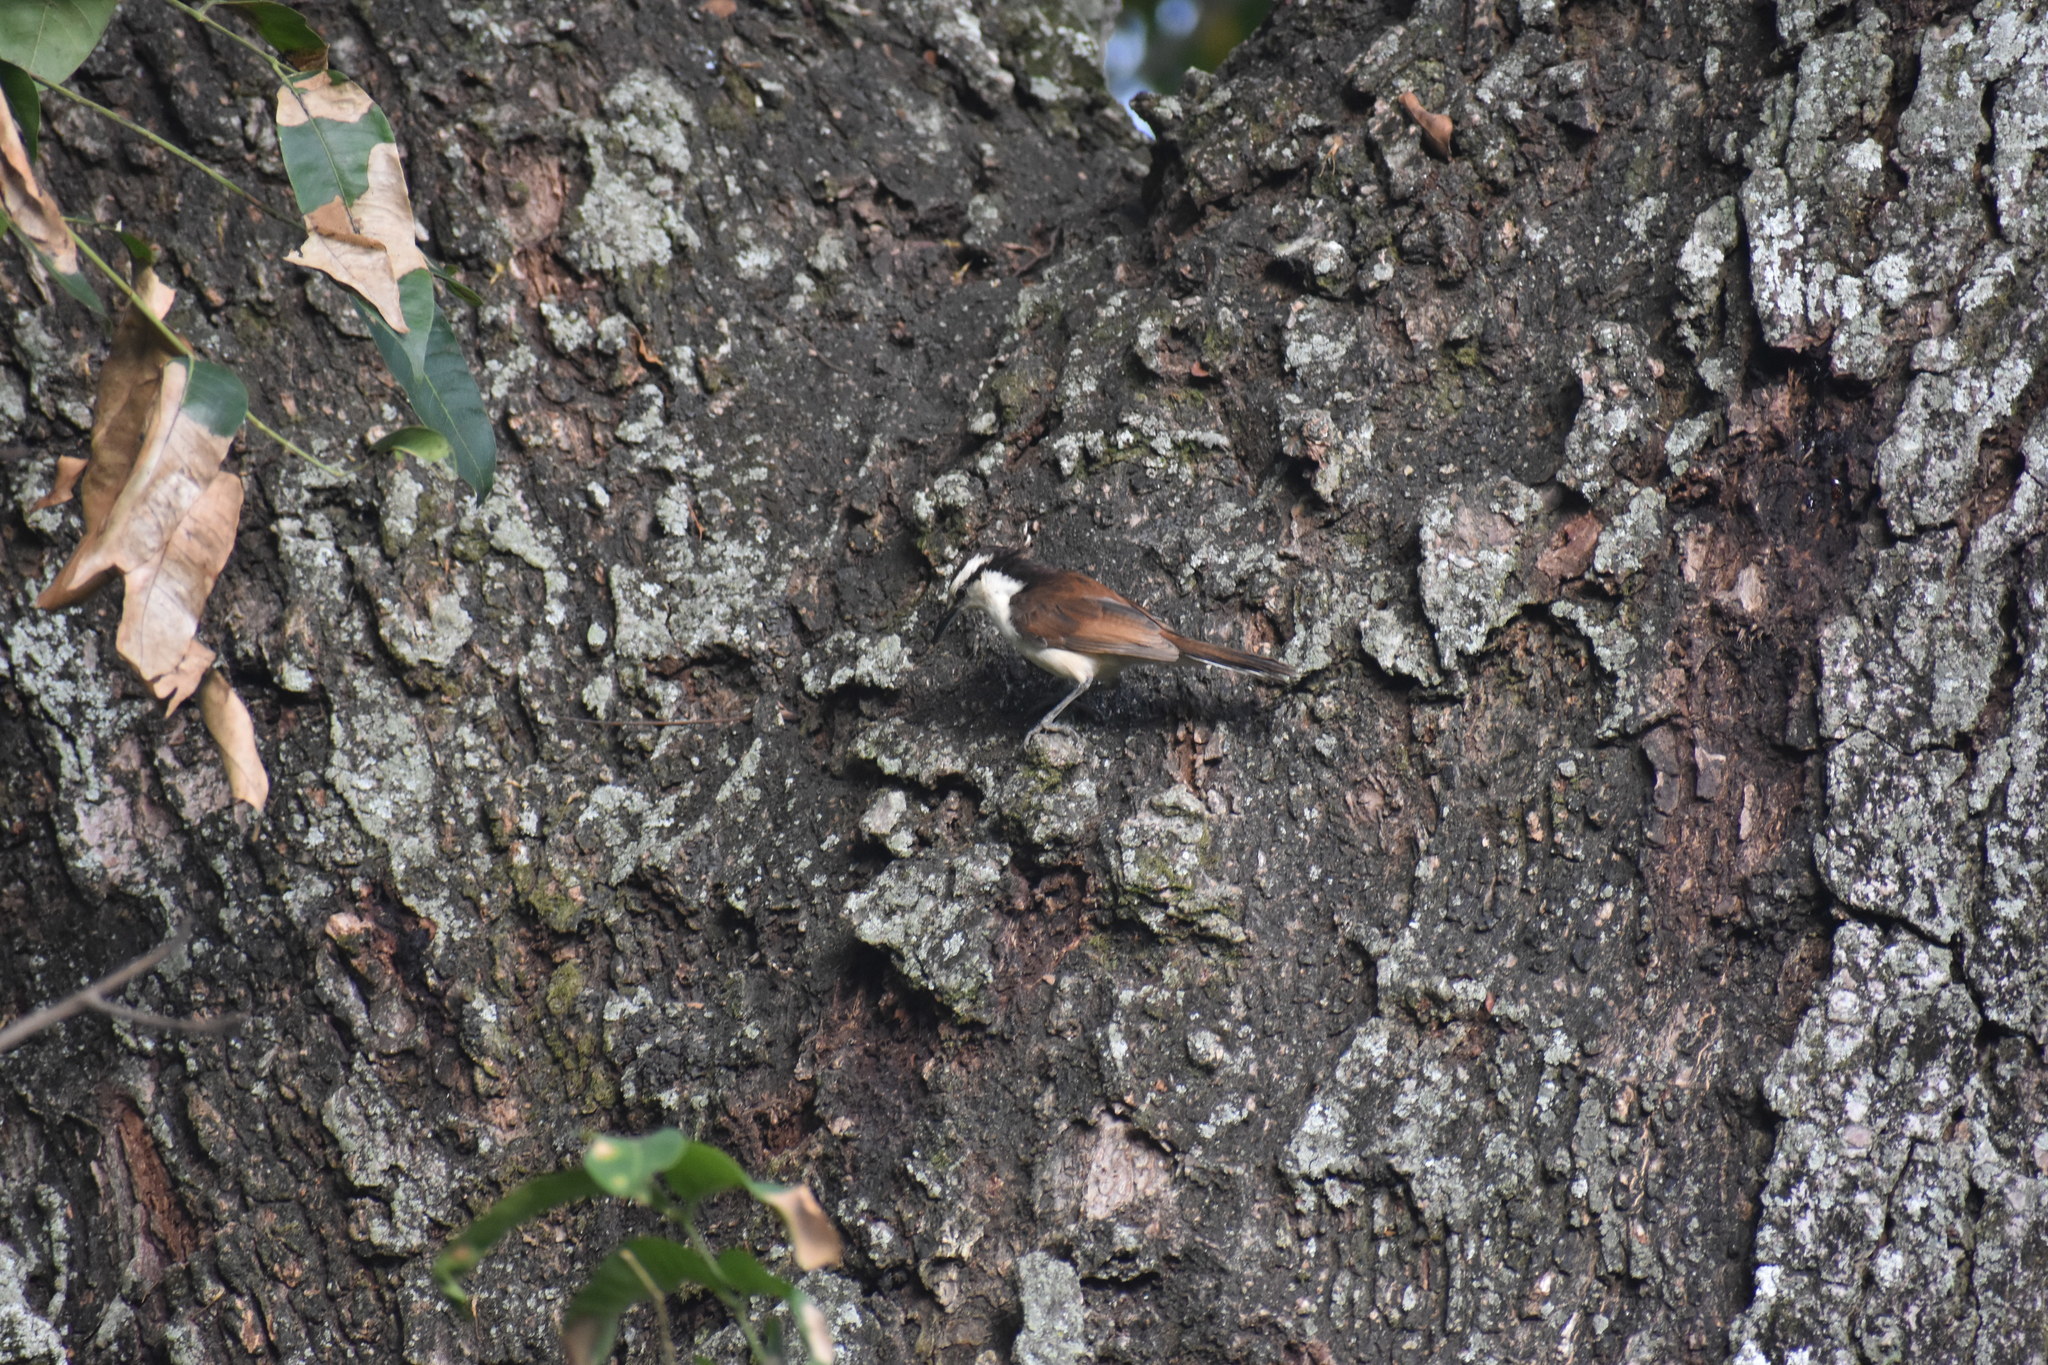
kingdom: Animalia
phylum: Chordata
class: Aves
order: Passeriformes
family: Troglodytidae
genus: Campylorhynchus
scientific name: Campylorhynchus griseus
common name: Bicolored wren
